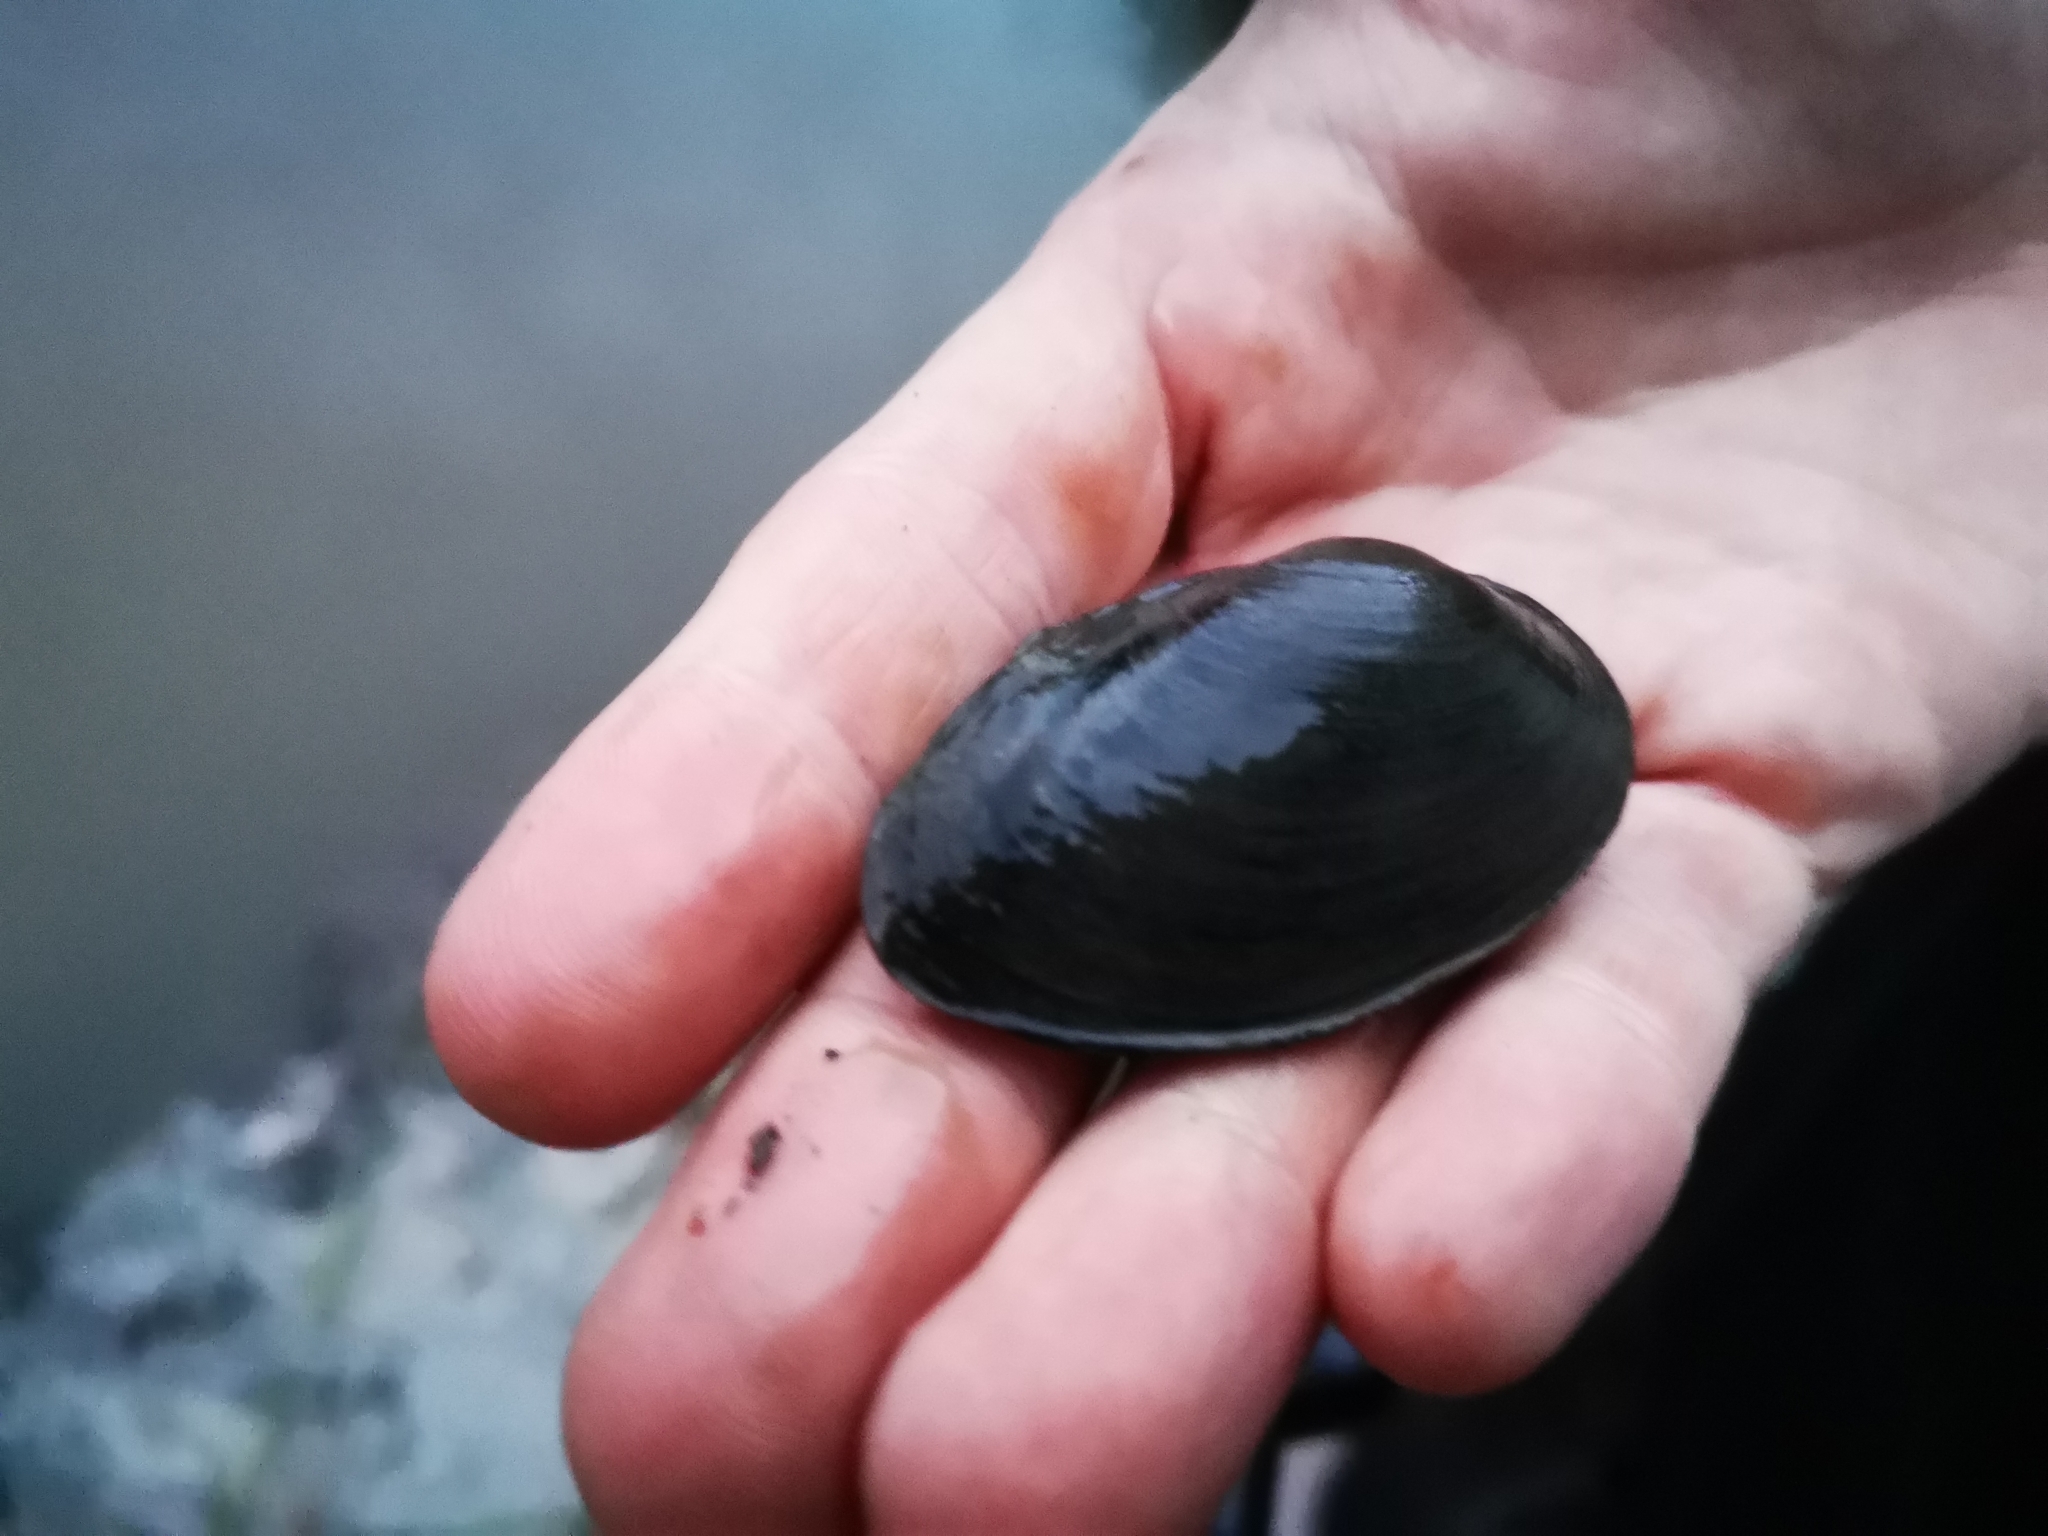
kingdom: Animalia
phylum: Mollusca
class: Bivalvia
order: Unionida
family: Unionidae
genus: Unio
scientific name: Unio crassus
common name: Thick shelled river mussel
